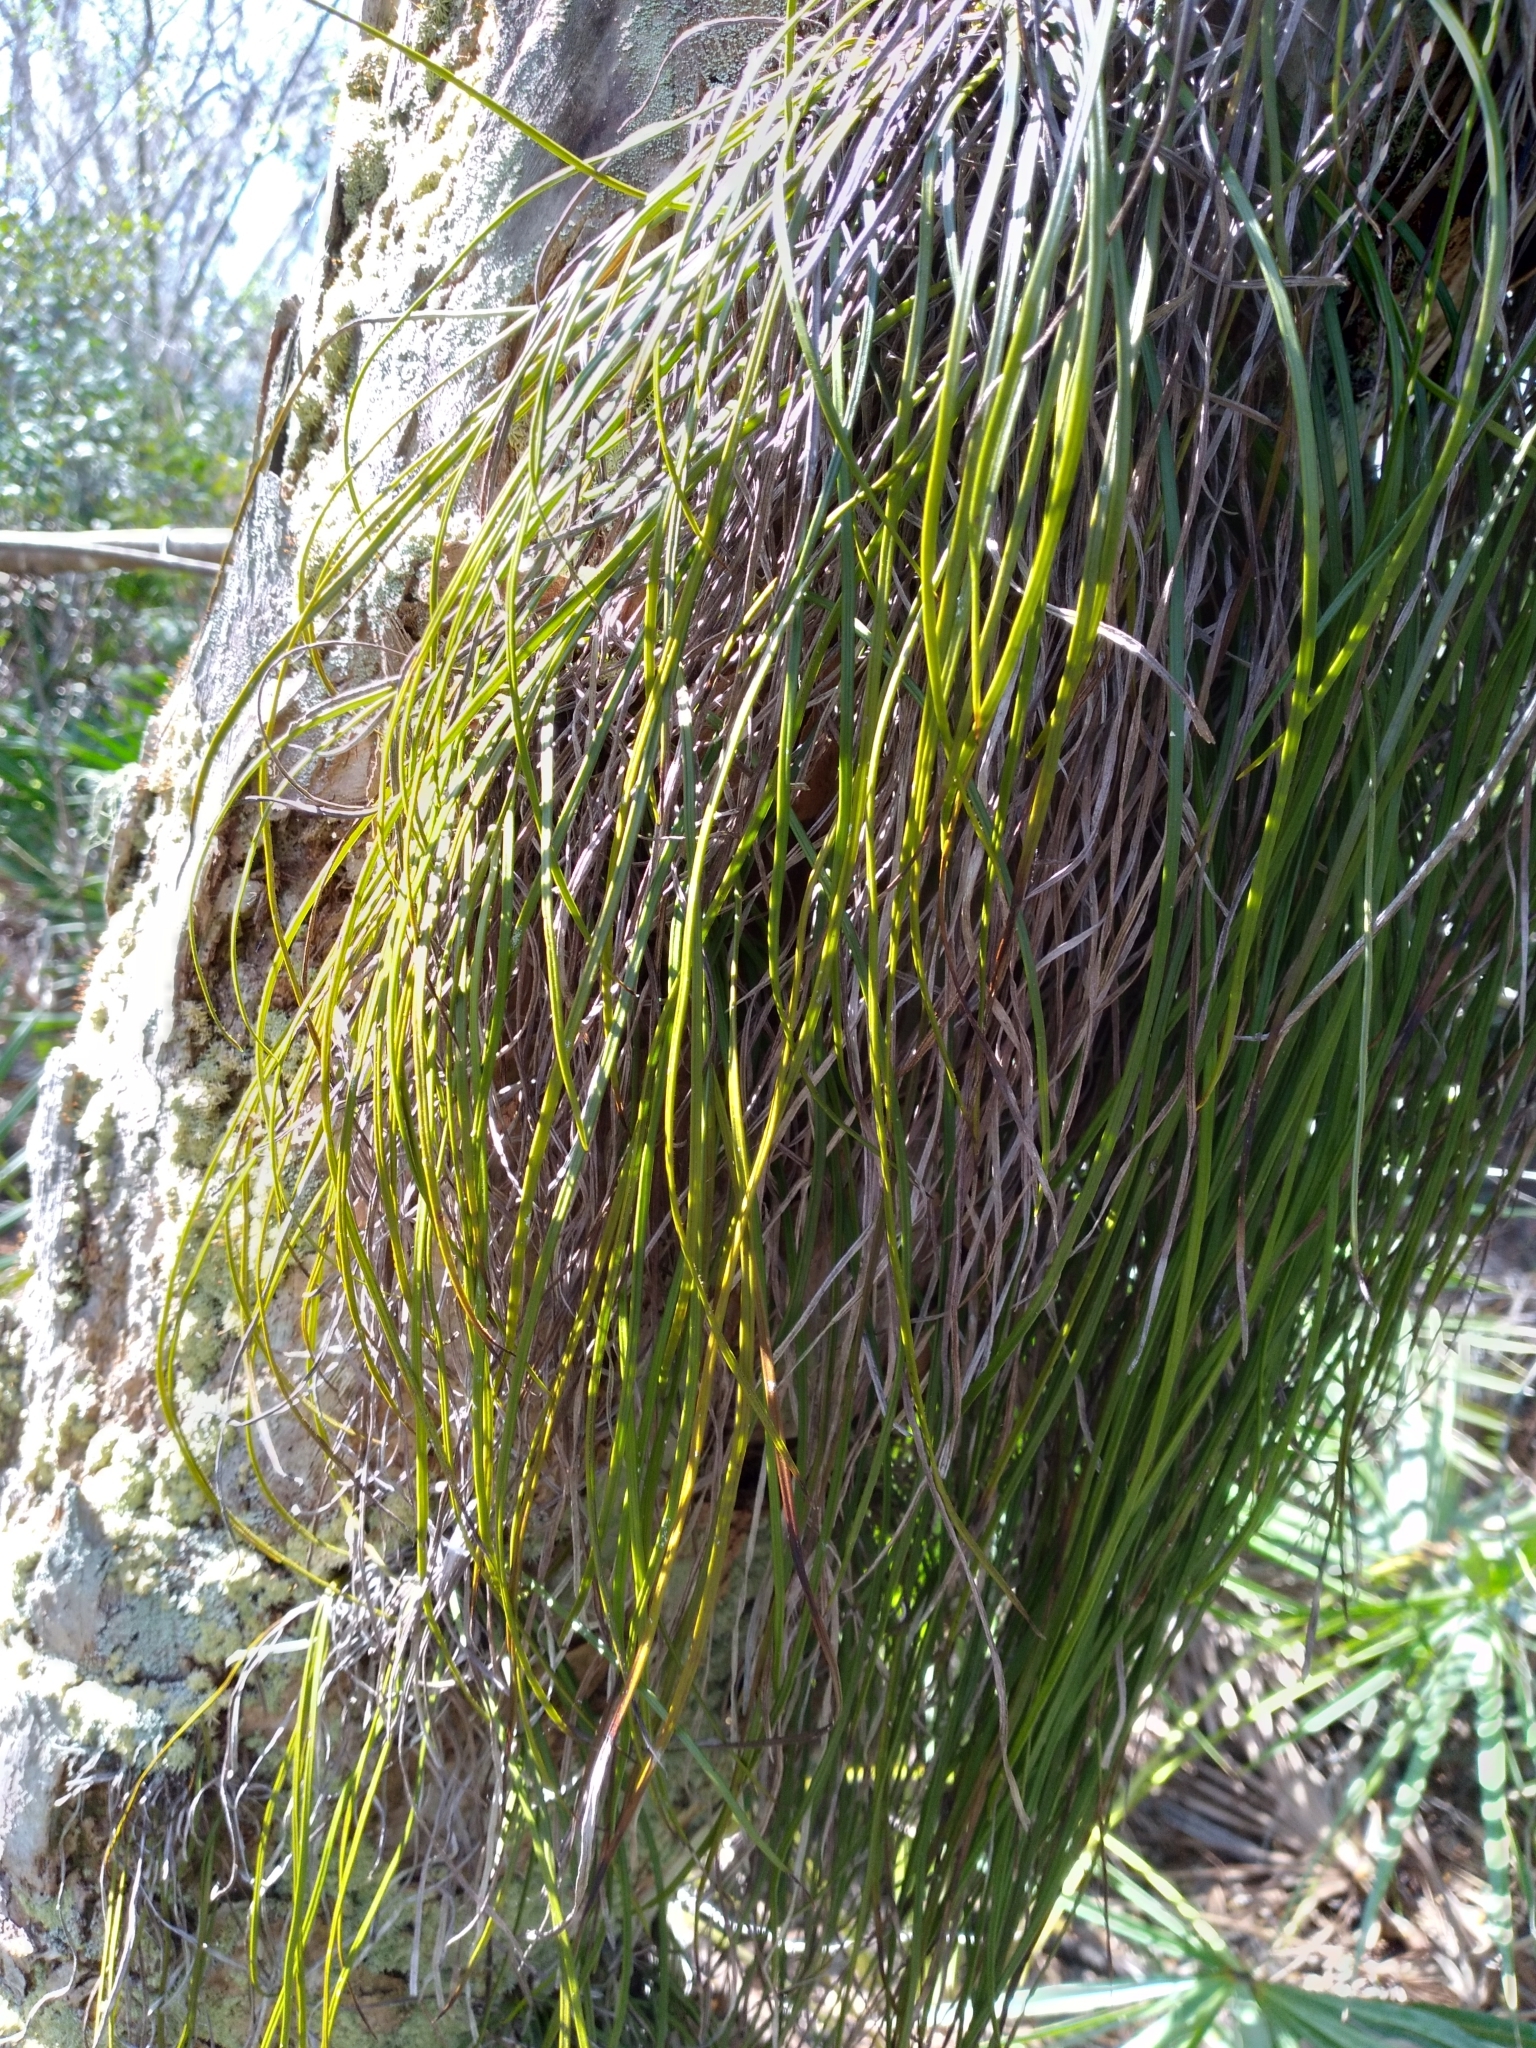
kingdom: Plantae
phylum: Tracheophyta
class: Polypodiopsida
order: Polypodiales
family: Pteridaceae
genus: Vittaria
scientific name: Vittaria lineata
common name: Shoestring fern
